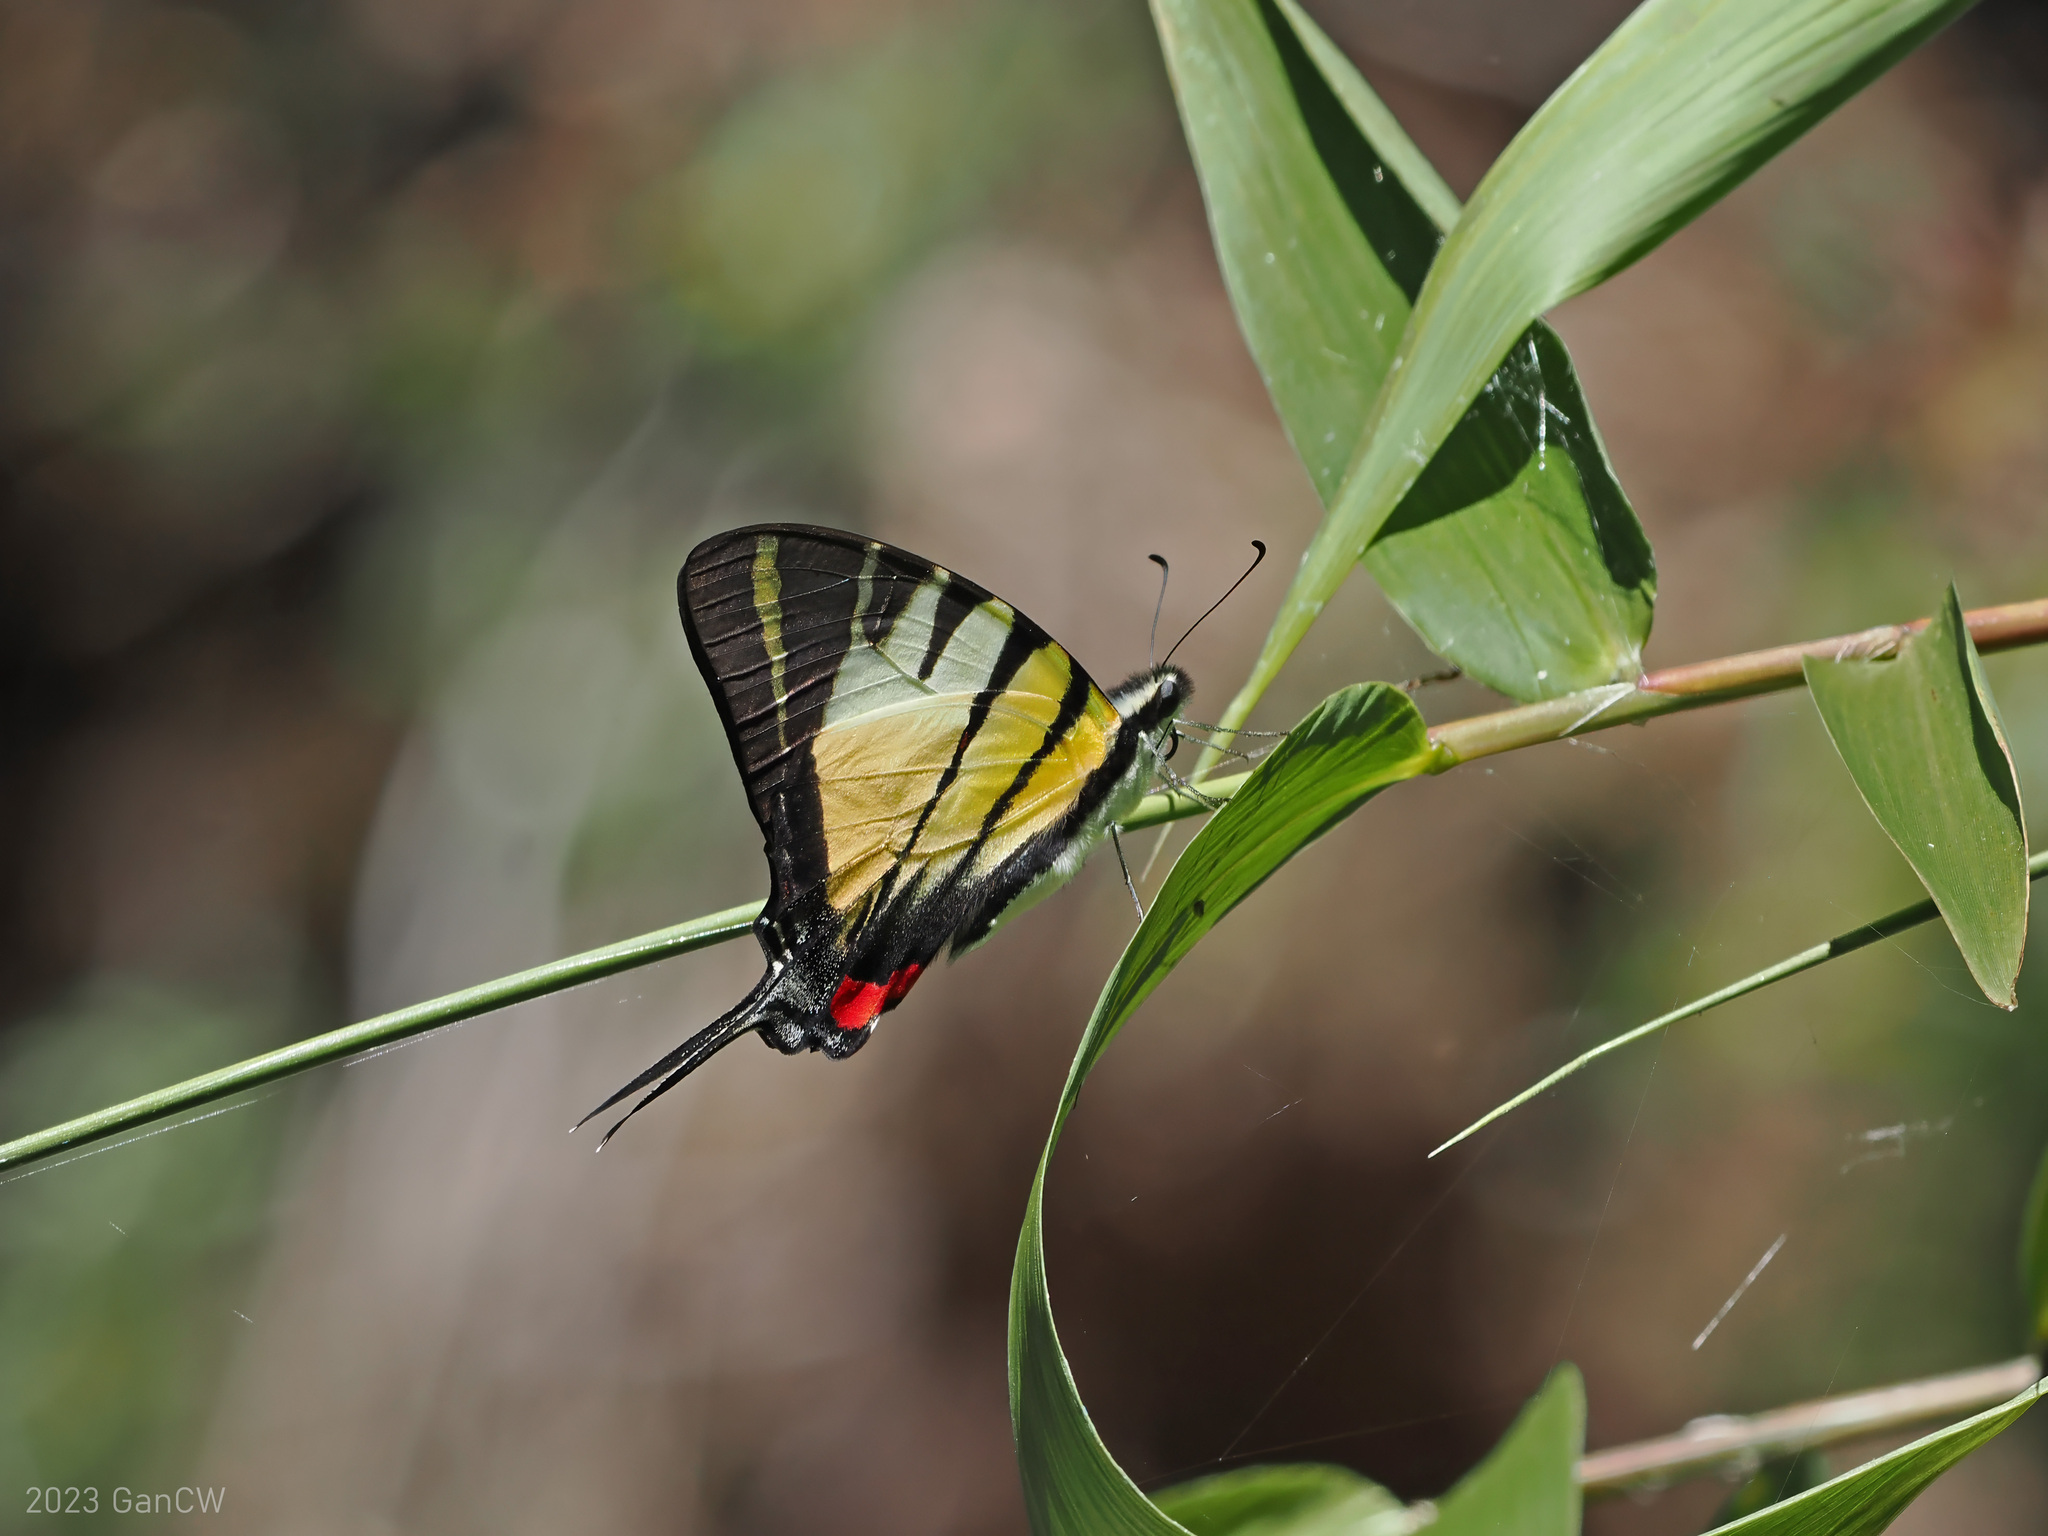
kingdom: Animalia
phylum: Arthropoda
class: Insecta
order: Lepidoptera
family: Papilionidae
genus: Graphium
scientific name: Graphium stratiotes
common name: Kinabalu swordtail
